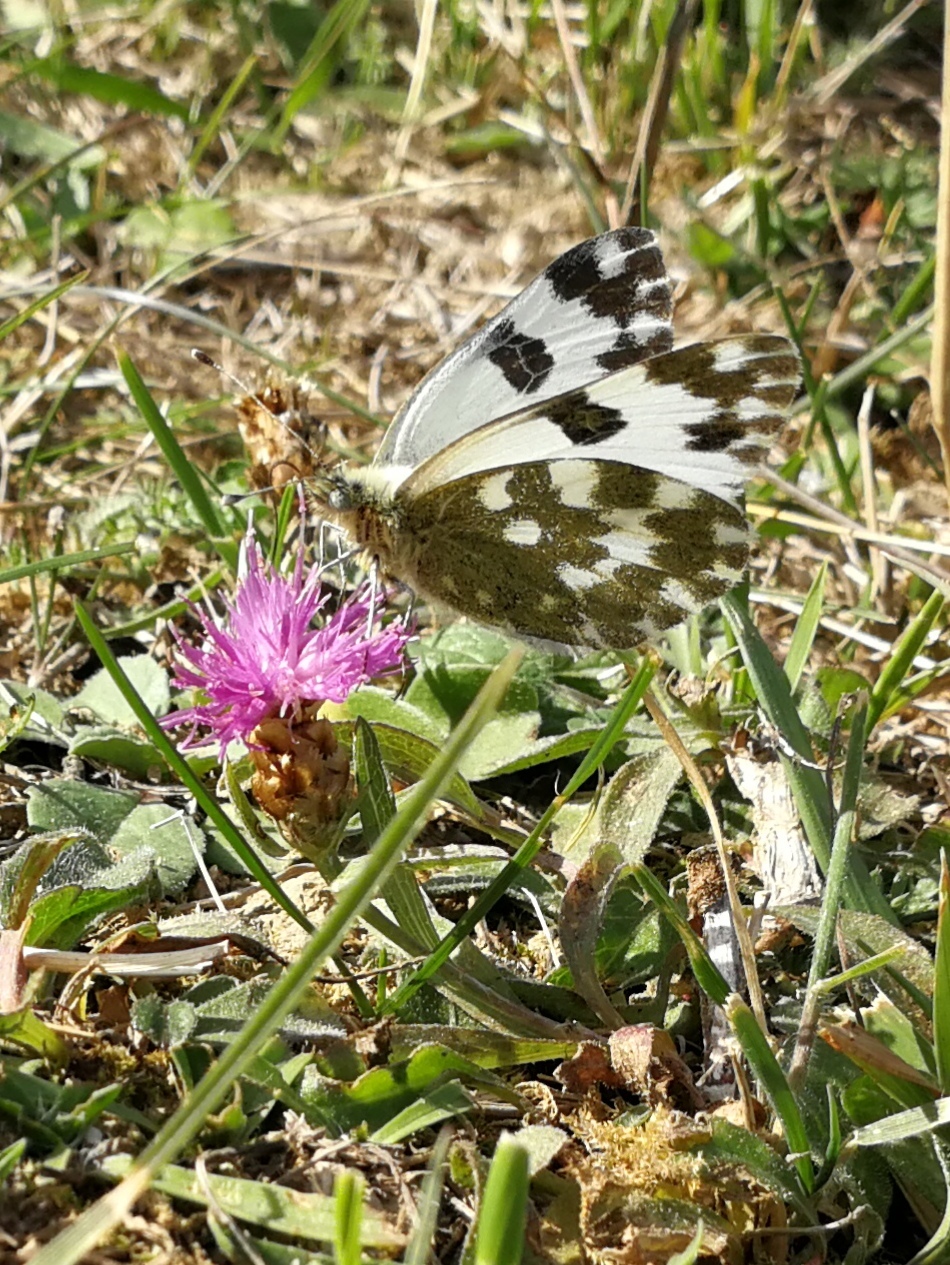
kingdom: Animalia
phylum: Arthropoda
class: Insecta
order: Lepidoptera
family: Pieridae
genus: Pontia
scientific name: Pontia daplidice
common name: Bath white
